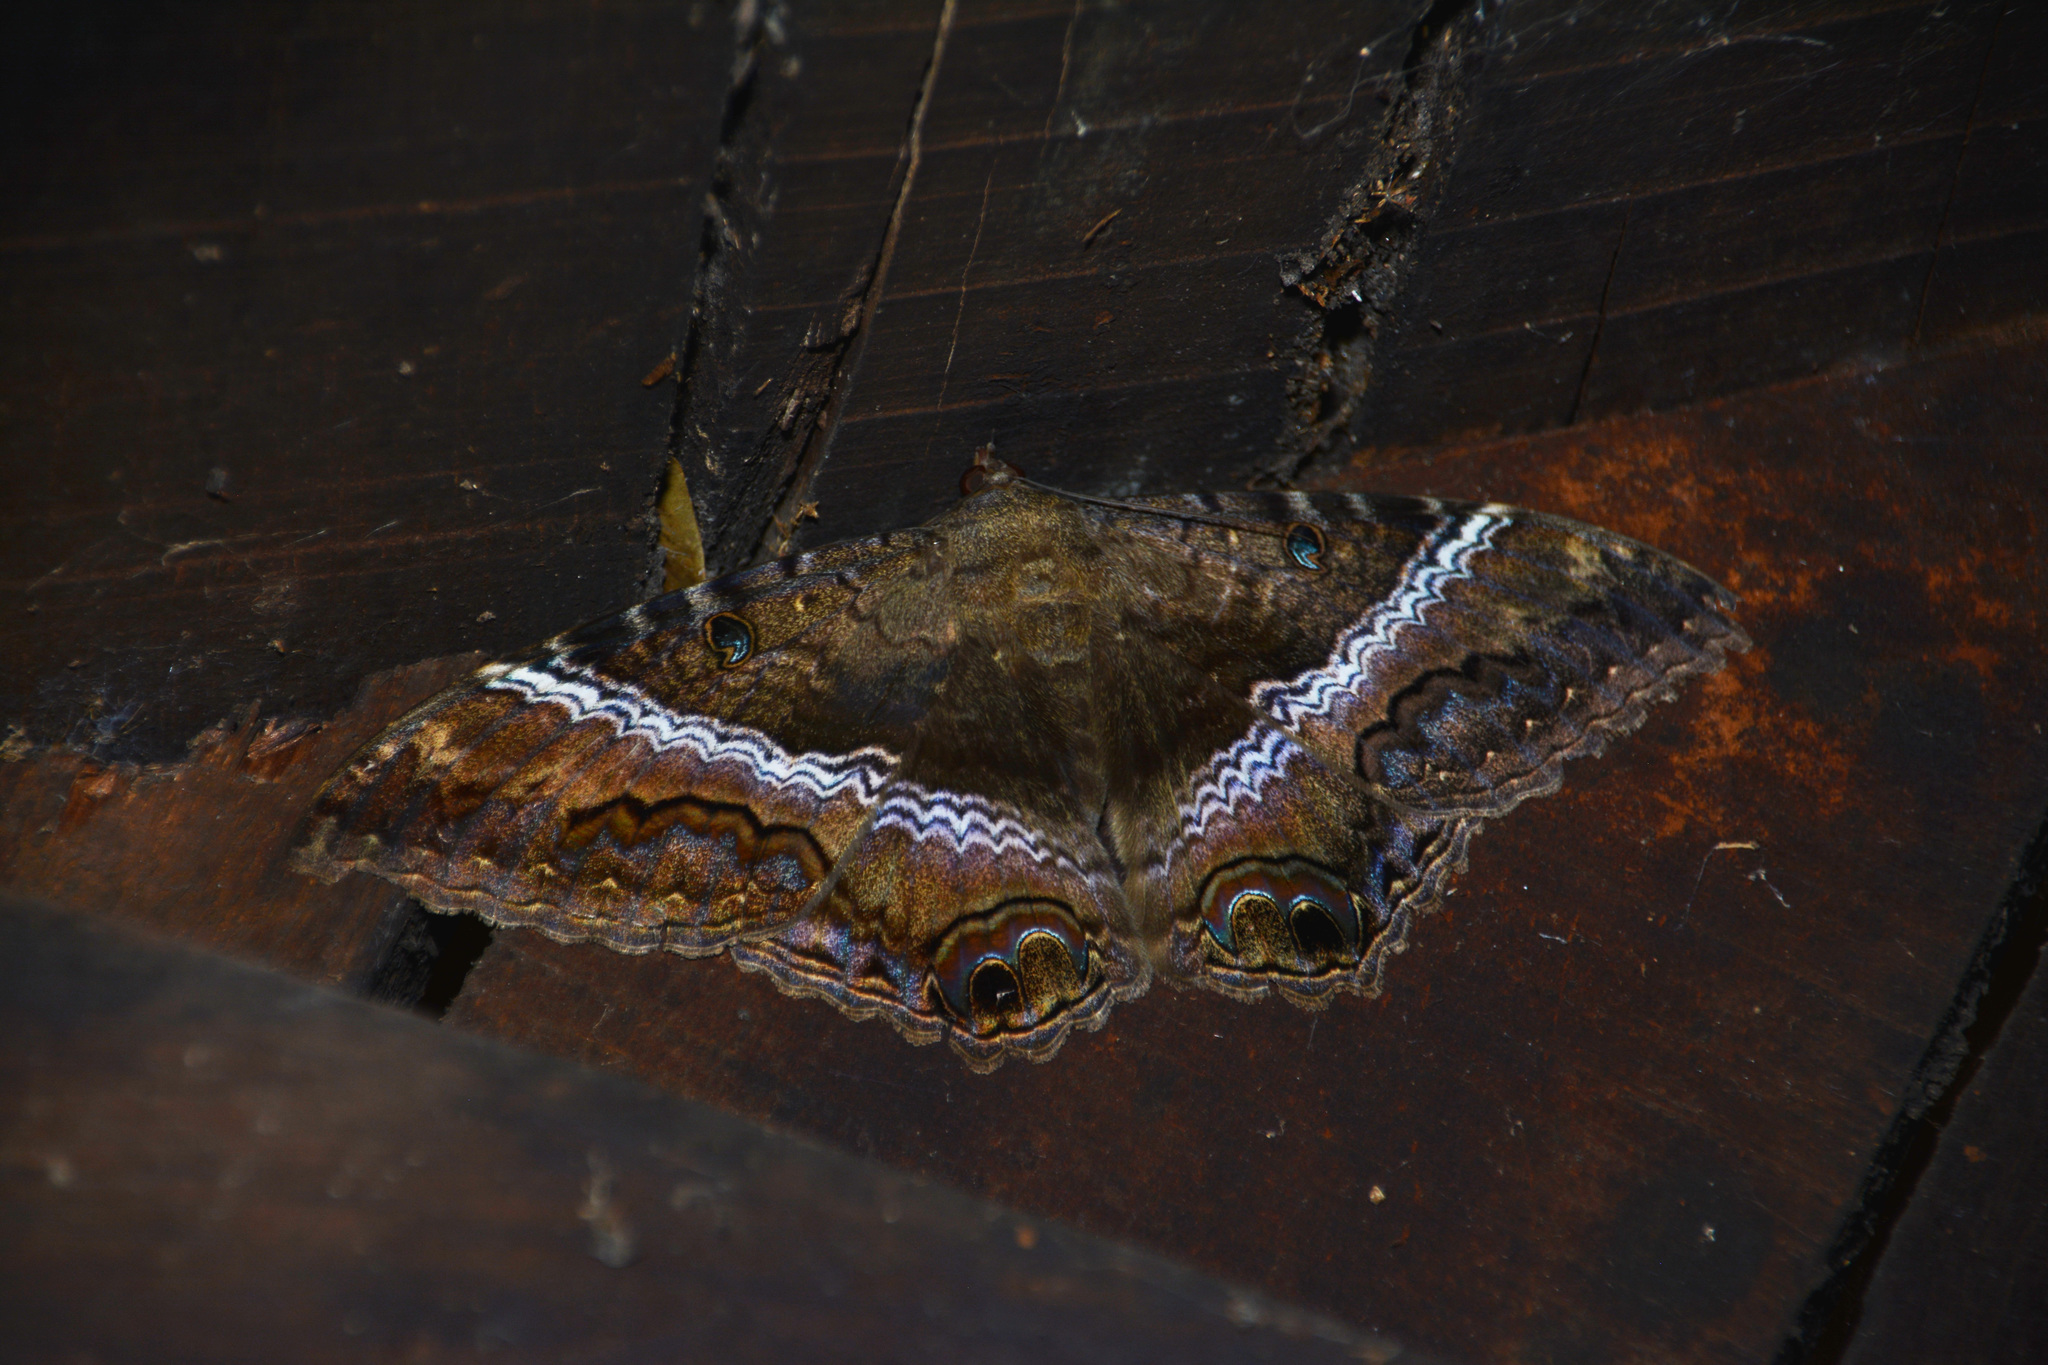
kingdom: Animalia
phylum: Arthropoda
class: Insecta
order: Lepidoptera
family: Erebidae
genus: Ascalapha
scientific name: Ascalapha odorata
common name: Black witch
